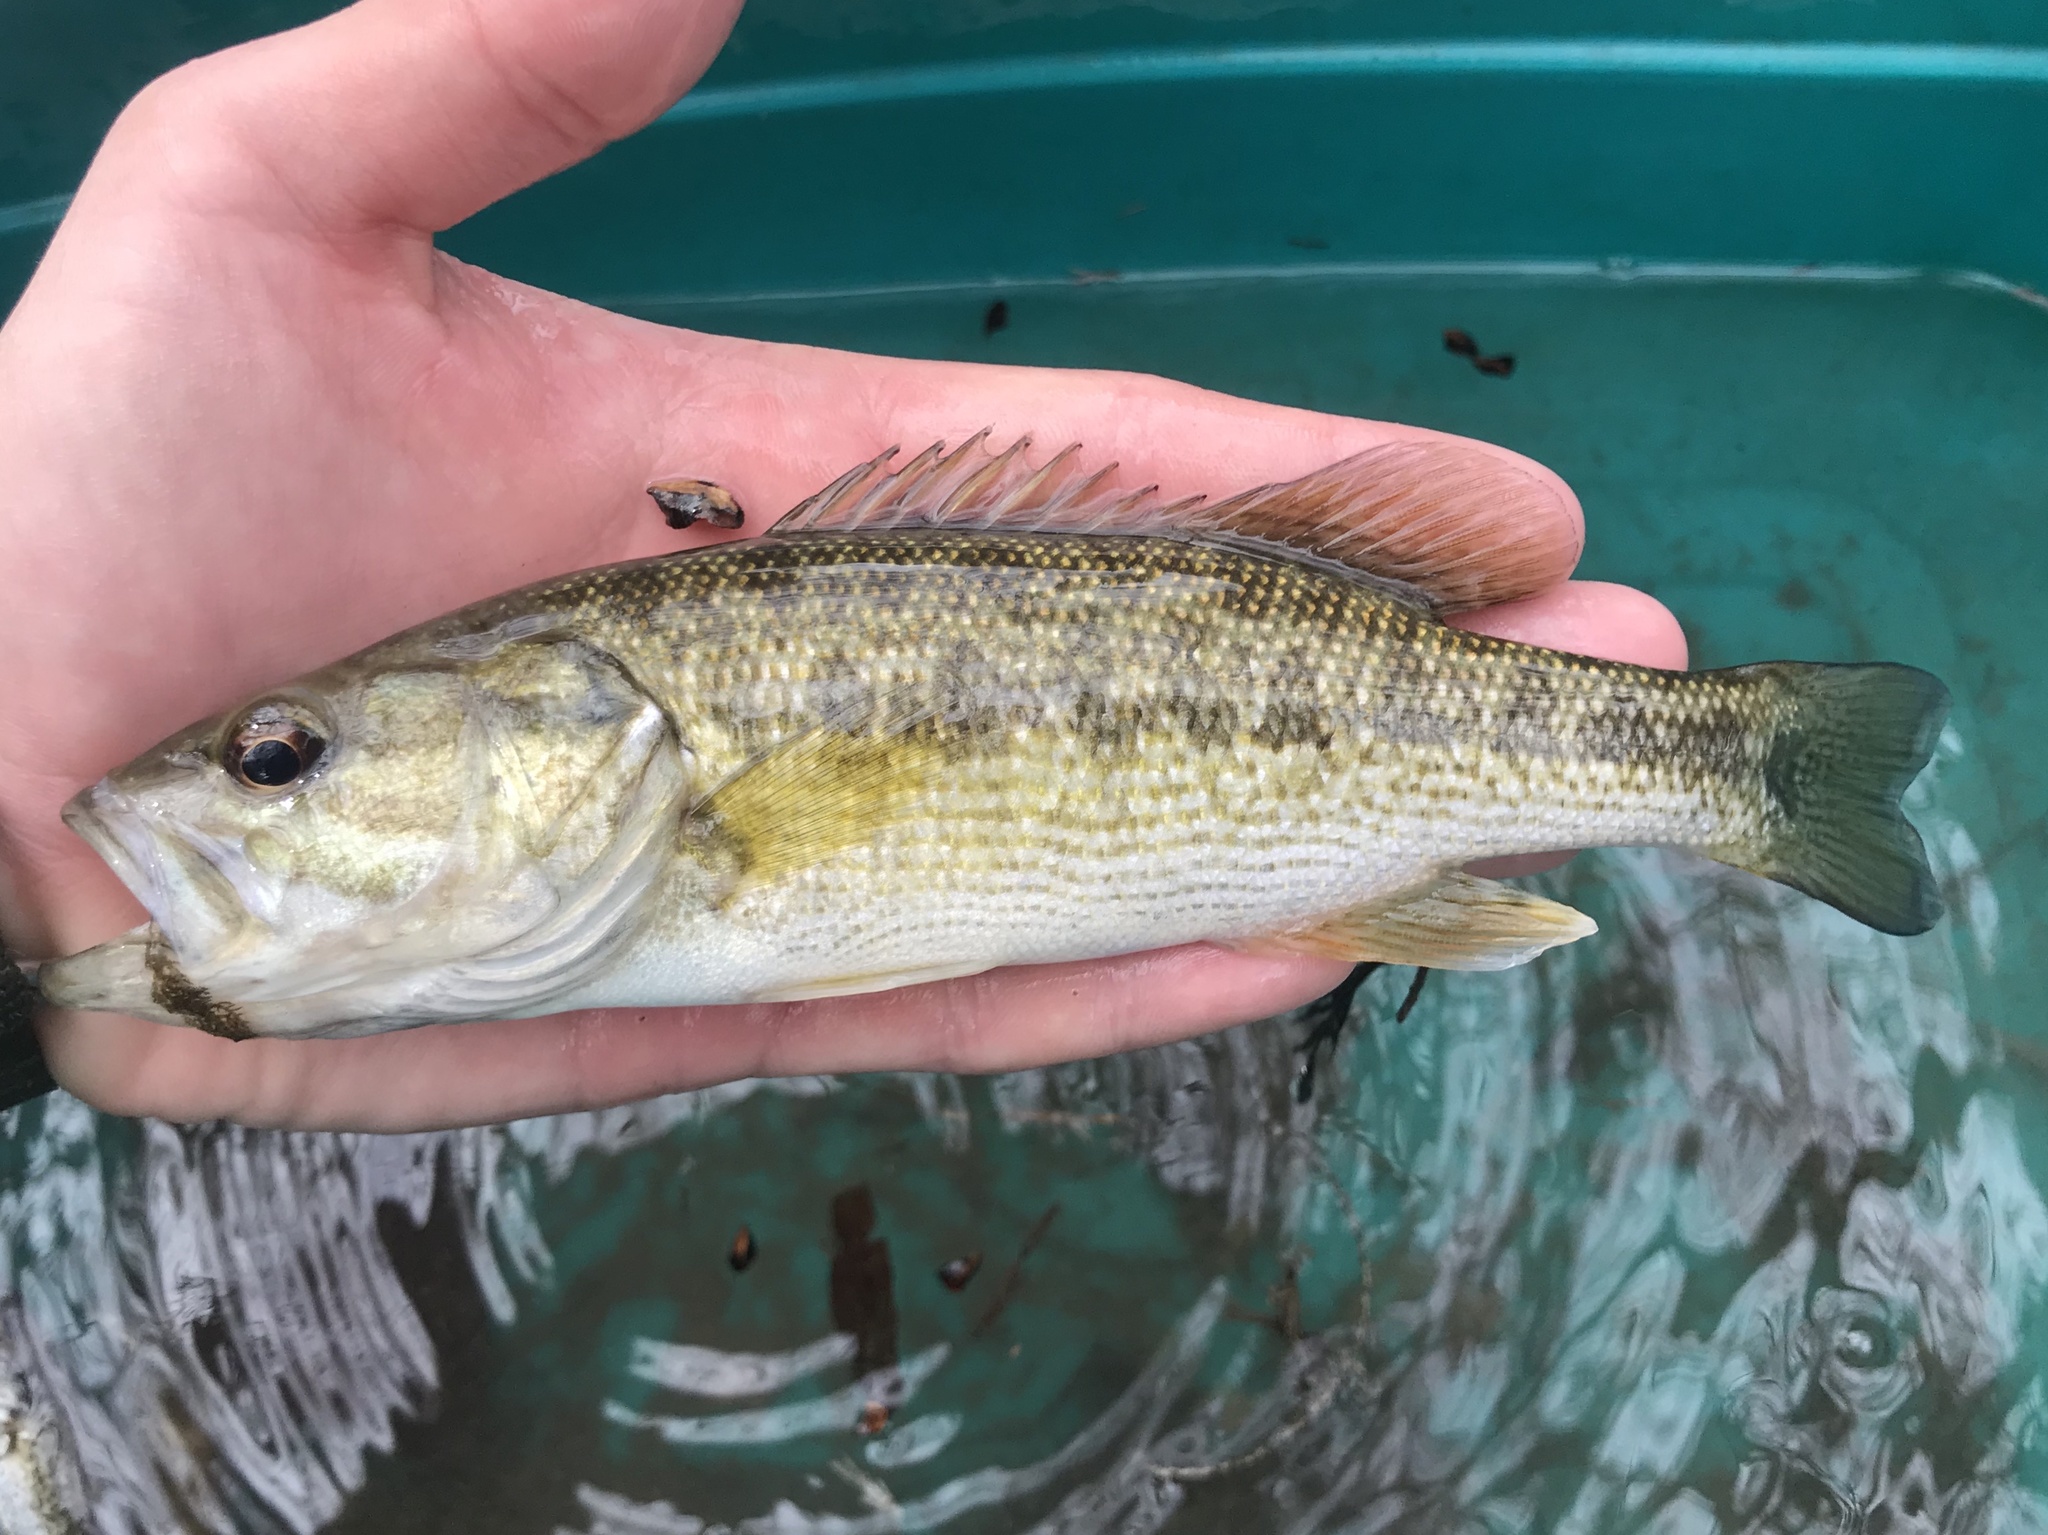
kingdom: Animalia
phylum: Chordata
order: Perciformes
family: Centrarchidae
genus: Micropterus
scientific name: Micropterus treculii
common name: Guadalupe bass
